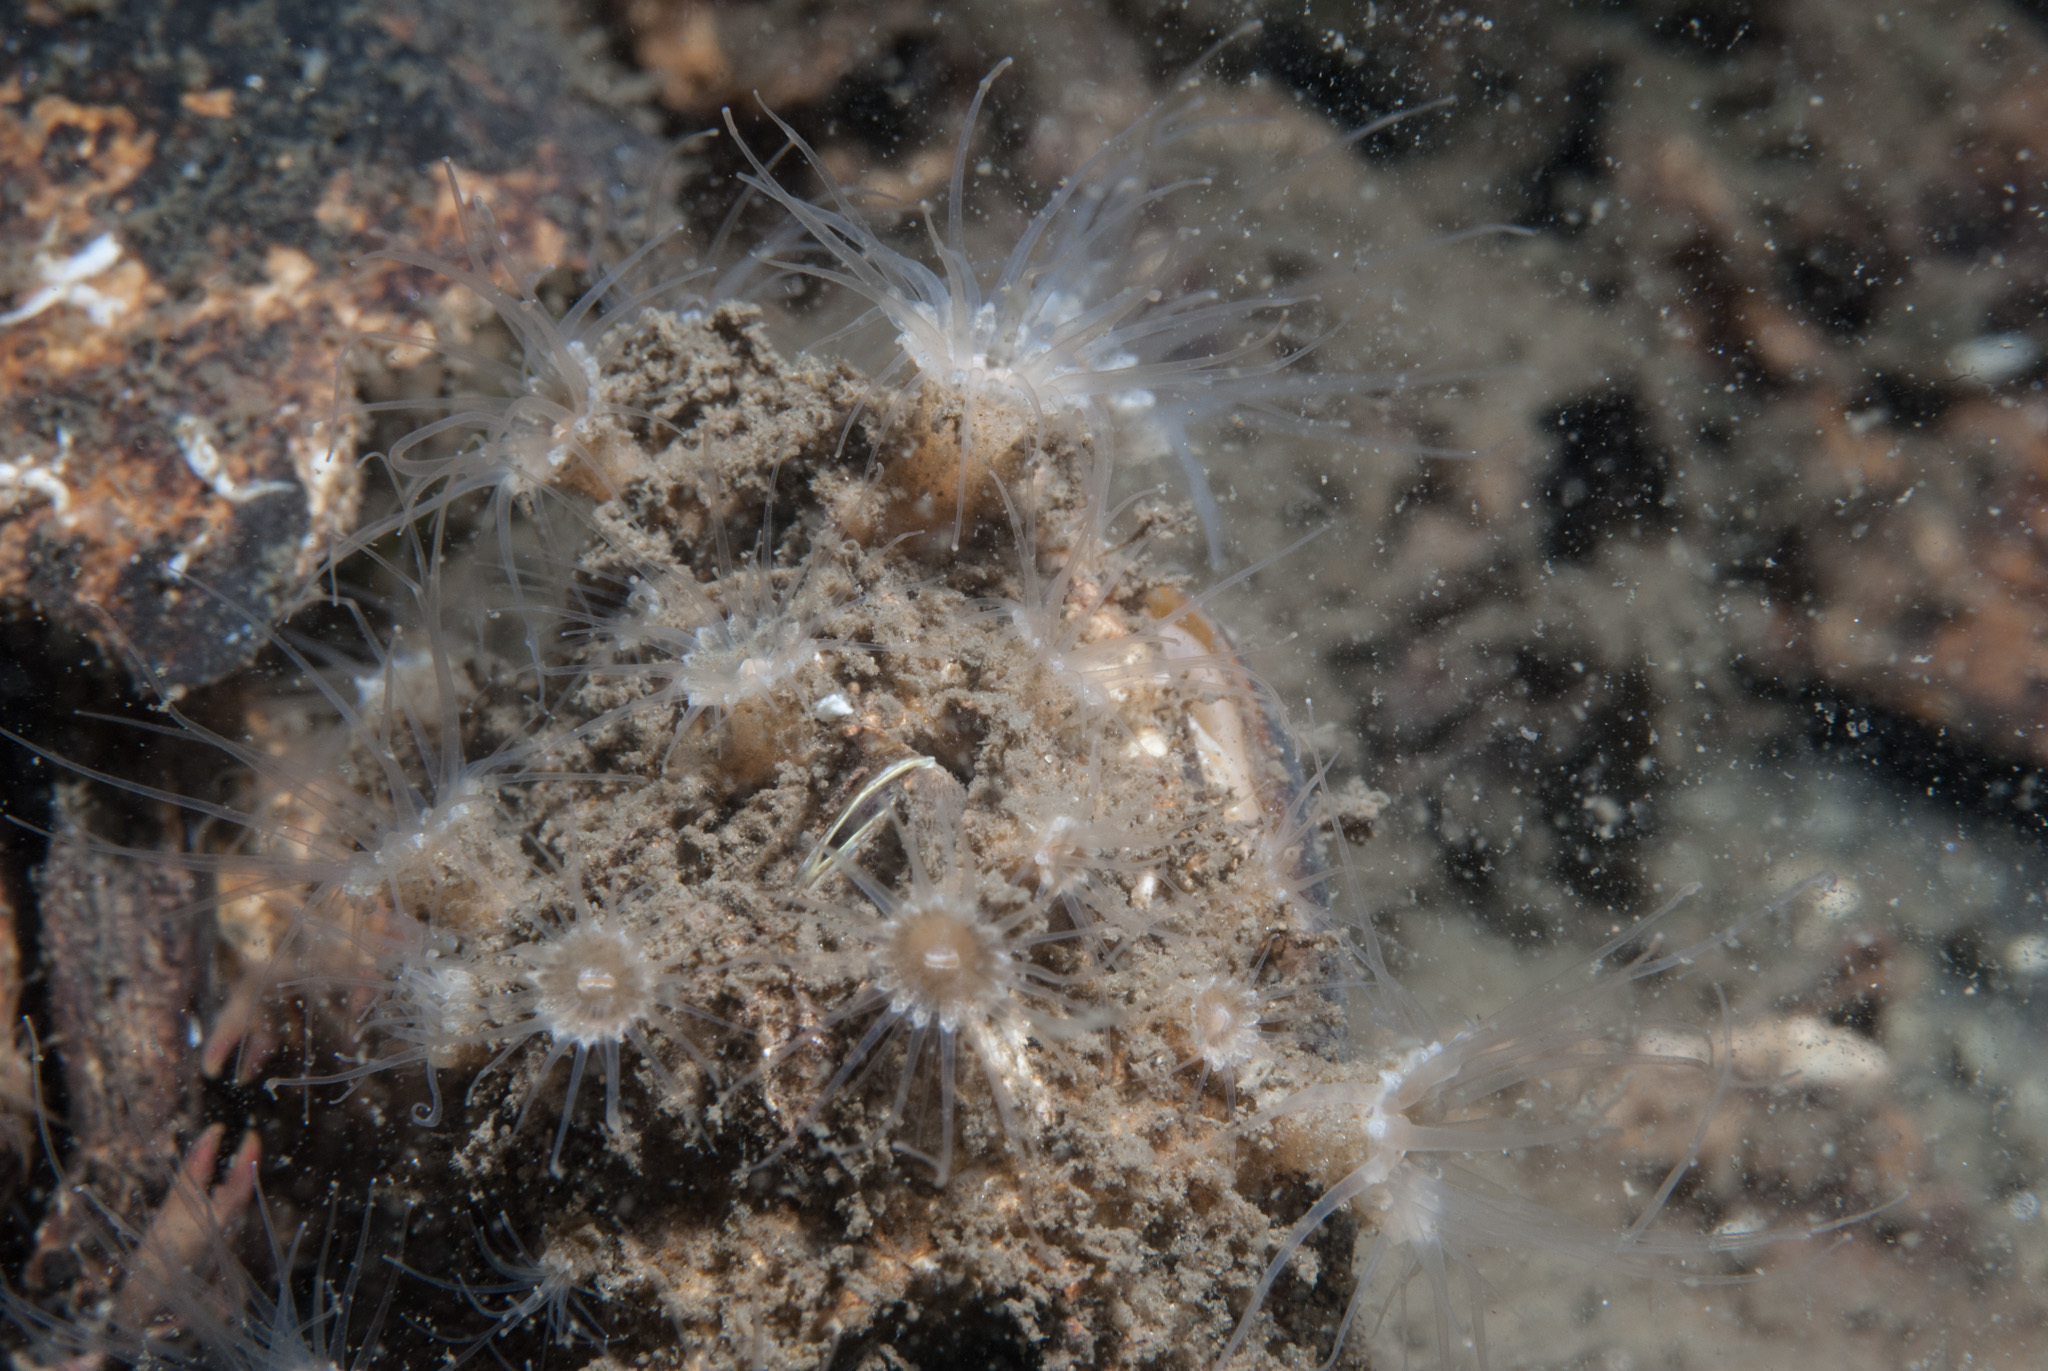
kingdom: Animalia
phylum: Cnidaria
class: Anthozoa
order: Zoantharia
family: Epizoanthidae
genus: Epizoanthus
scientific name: Epizoanthus couchii
